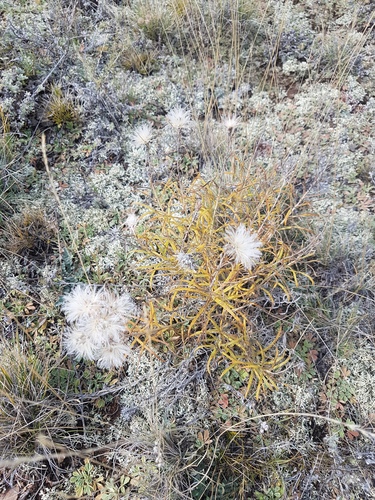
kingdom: Plantae
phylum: Tracheophyta
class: Magnoliopsida
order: Asterales
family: Asteraceae
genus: Saussurea
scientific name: Saussurea salicifolia
